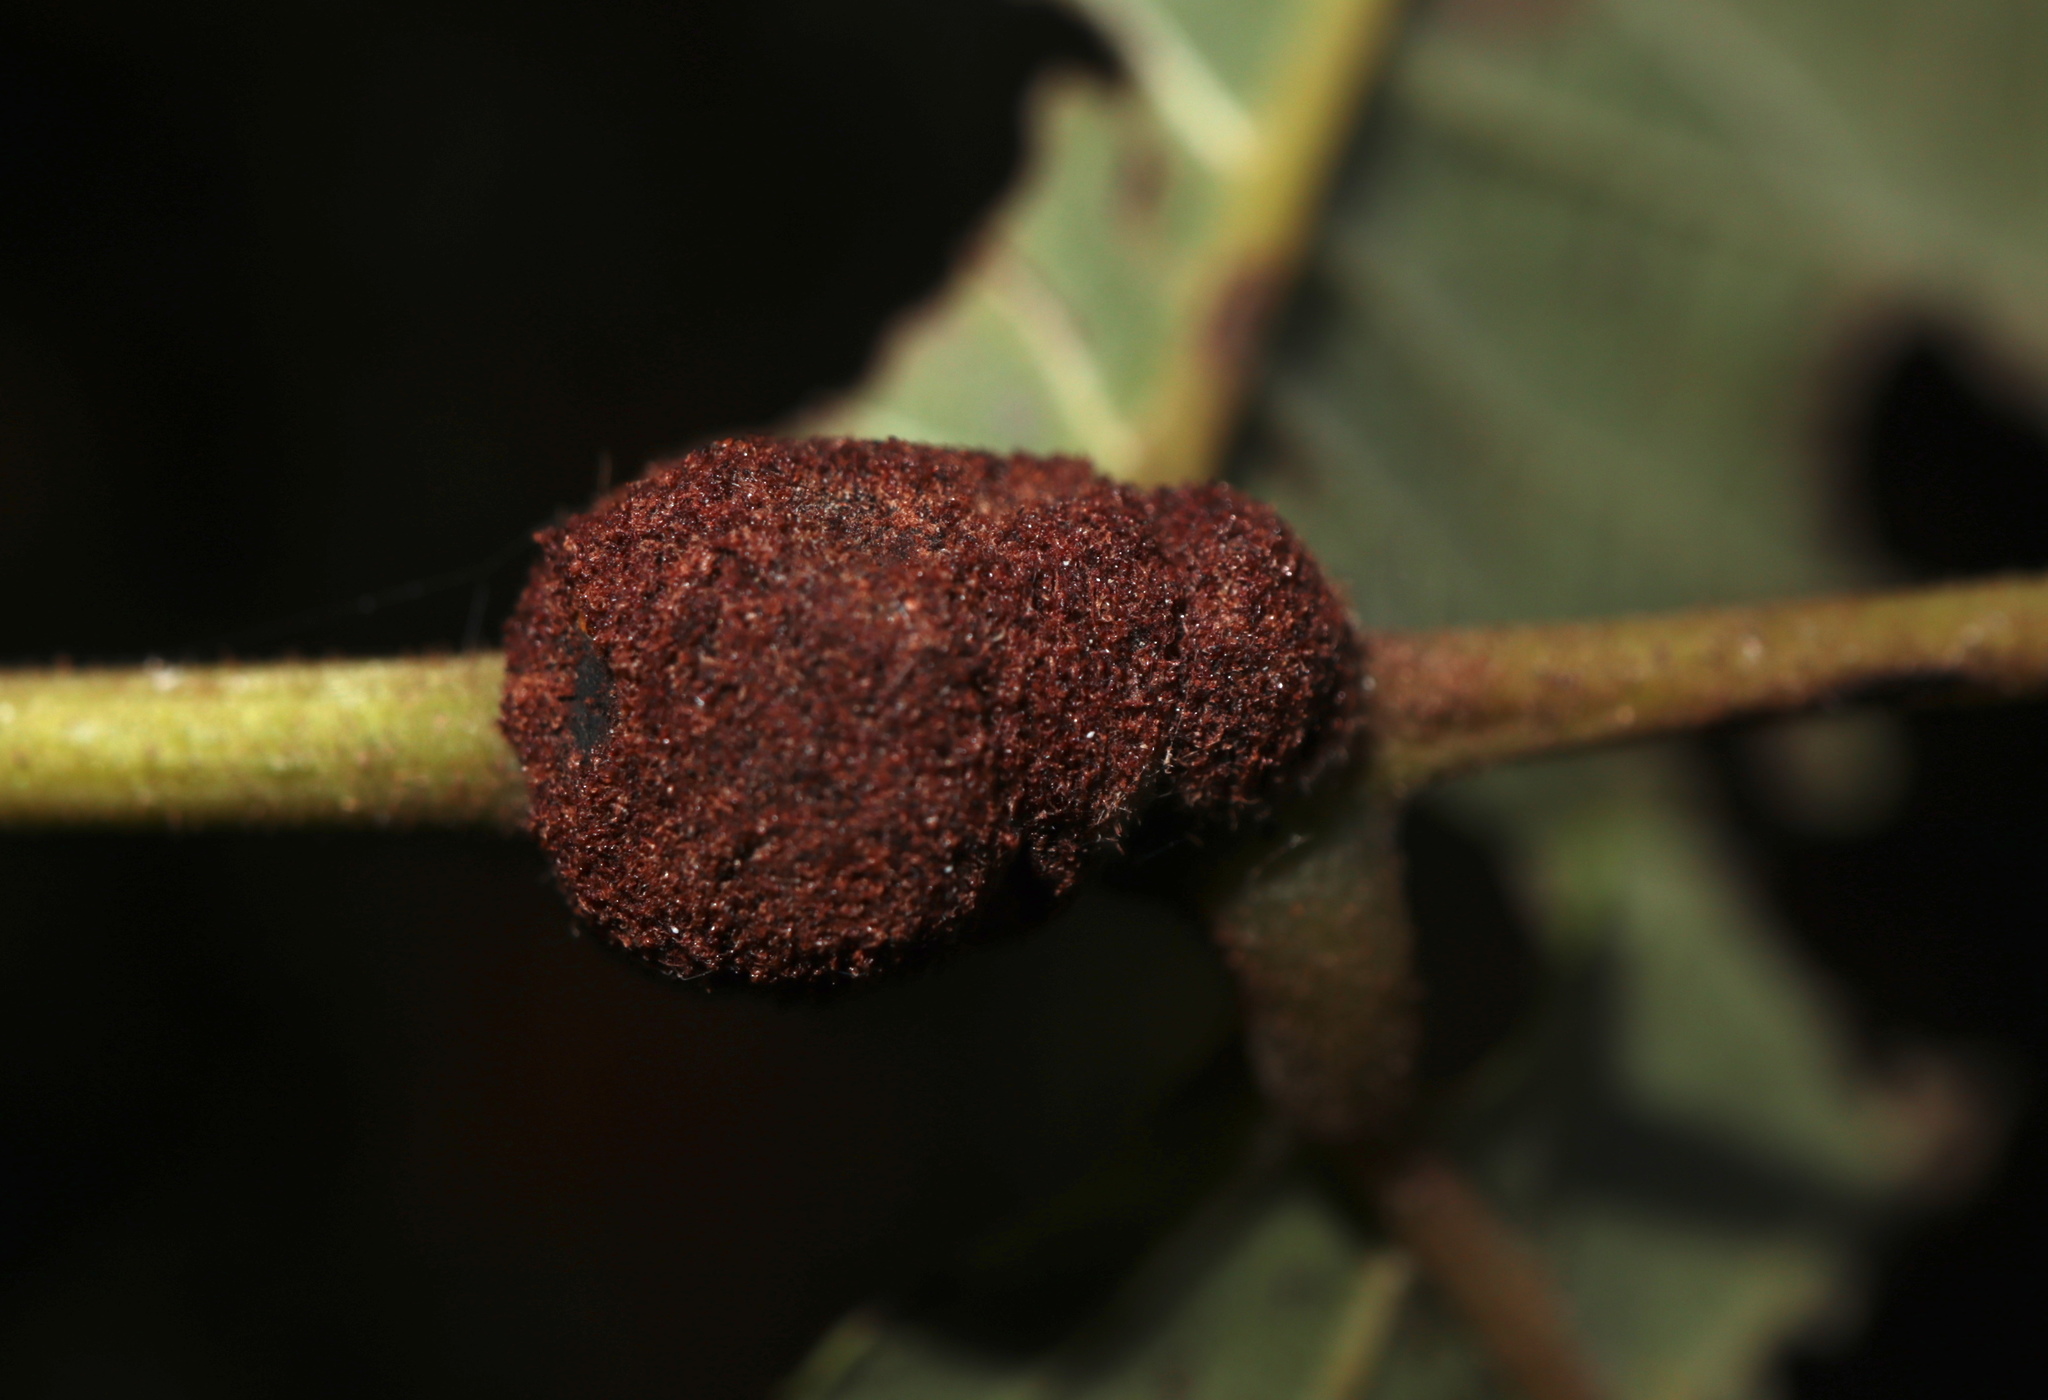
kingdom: Animalia
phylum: Arthropoda
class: Arachnida
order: Trombidiformes
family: Eriophyidae
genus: Aceria
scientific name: Aceria
